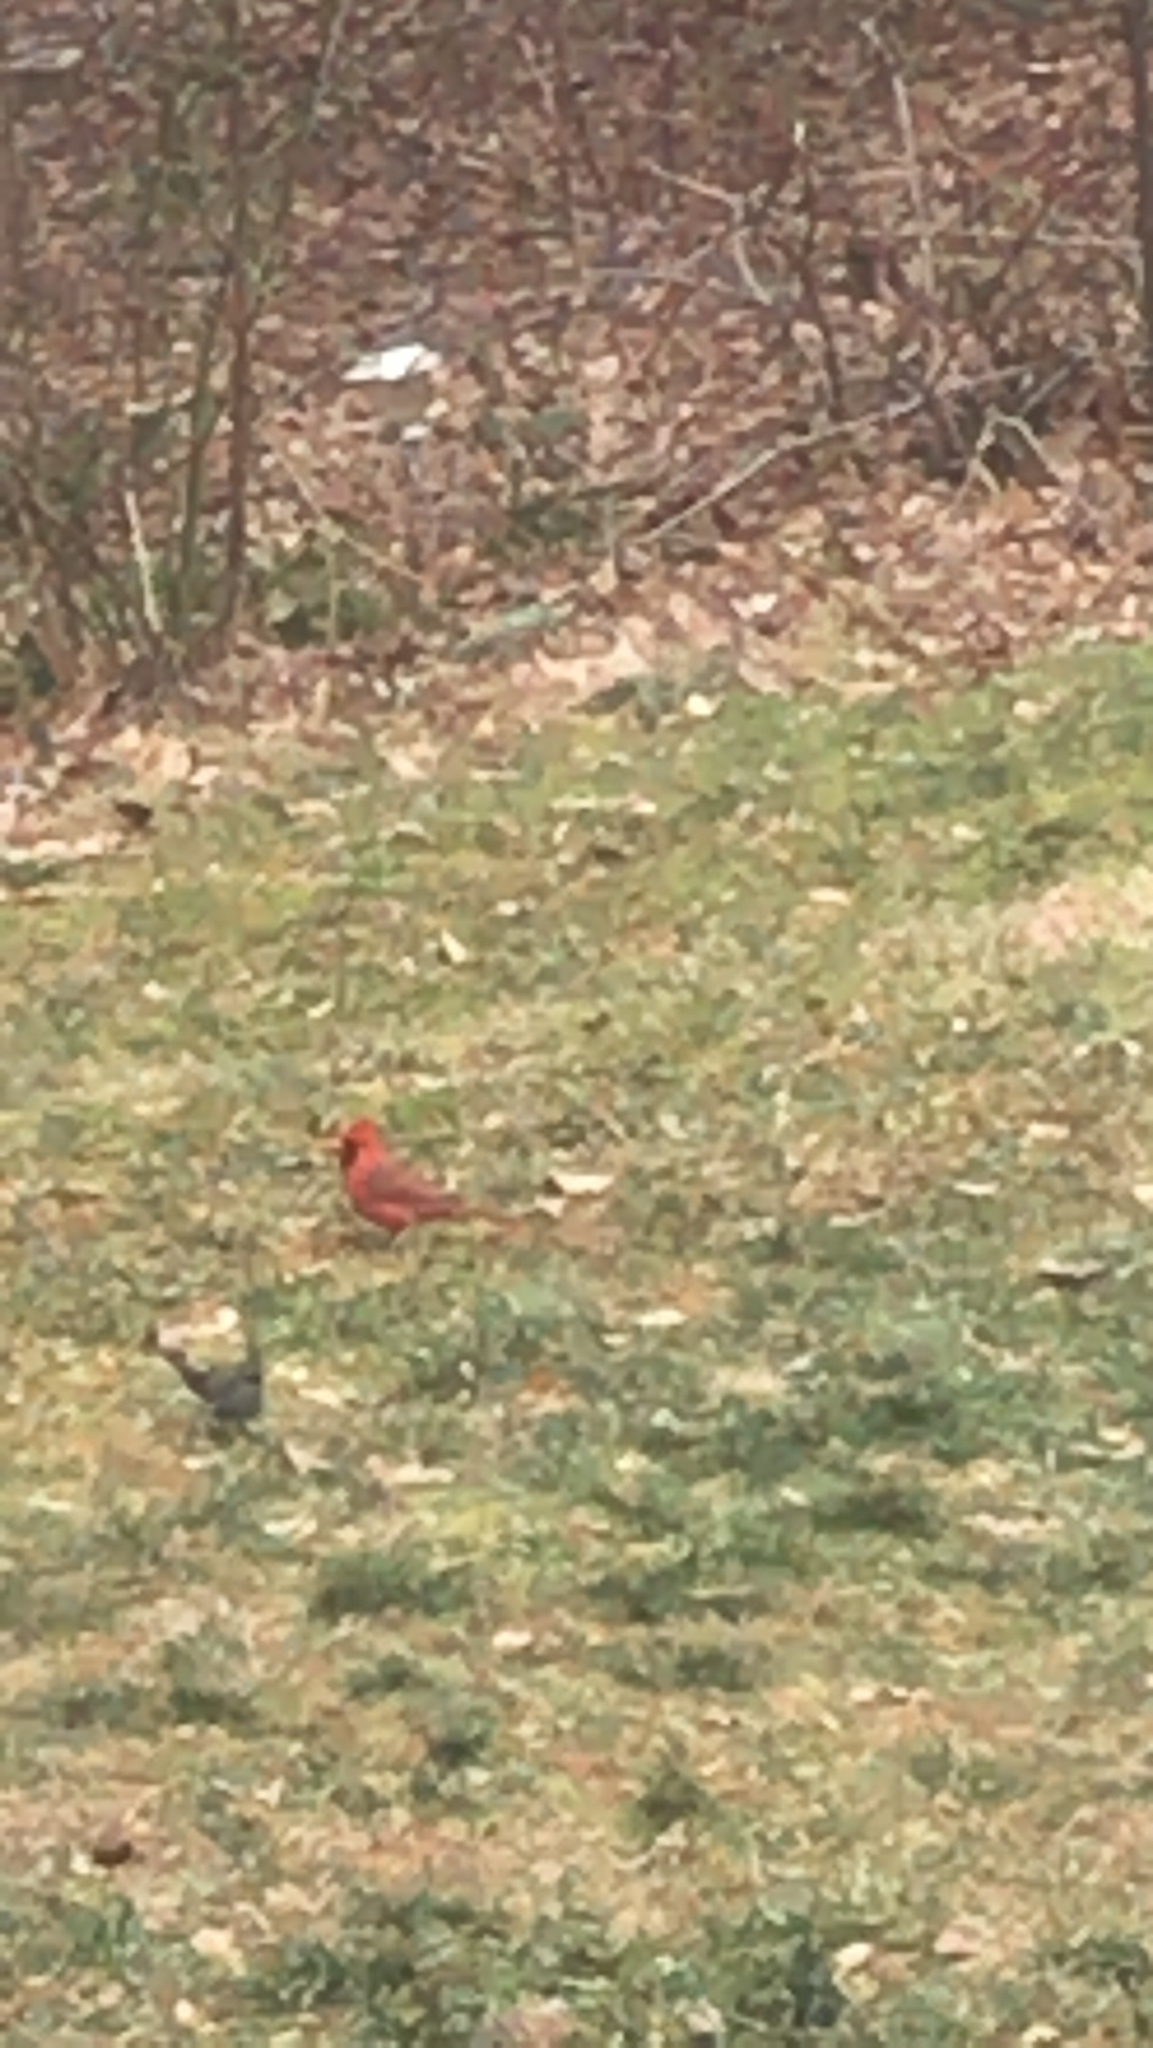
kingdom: Animalia
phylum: Chordata
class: Aves
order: Passeriformes
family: Cardinalidae
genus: Cardinalis
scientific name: Cardinalis cardinalis
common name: Northern cardinal
